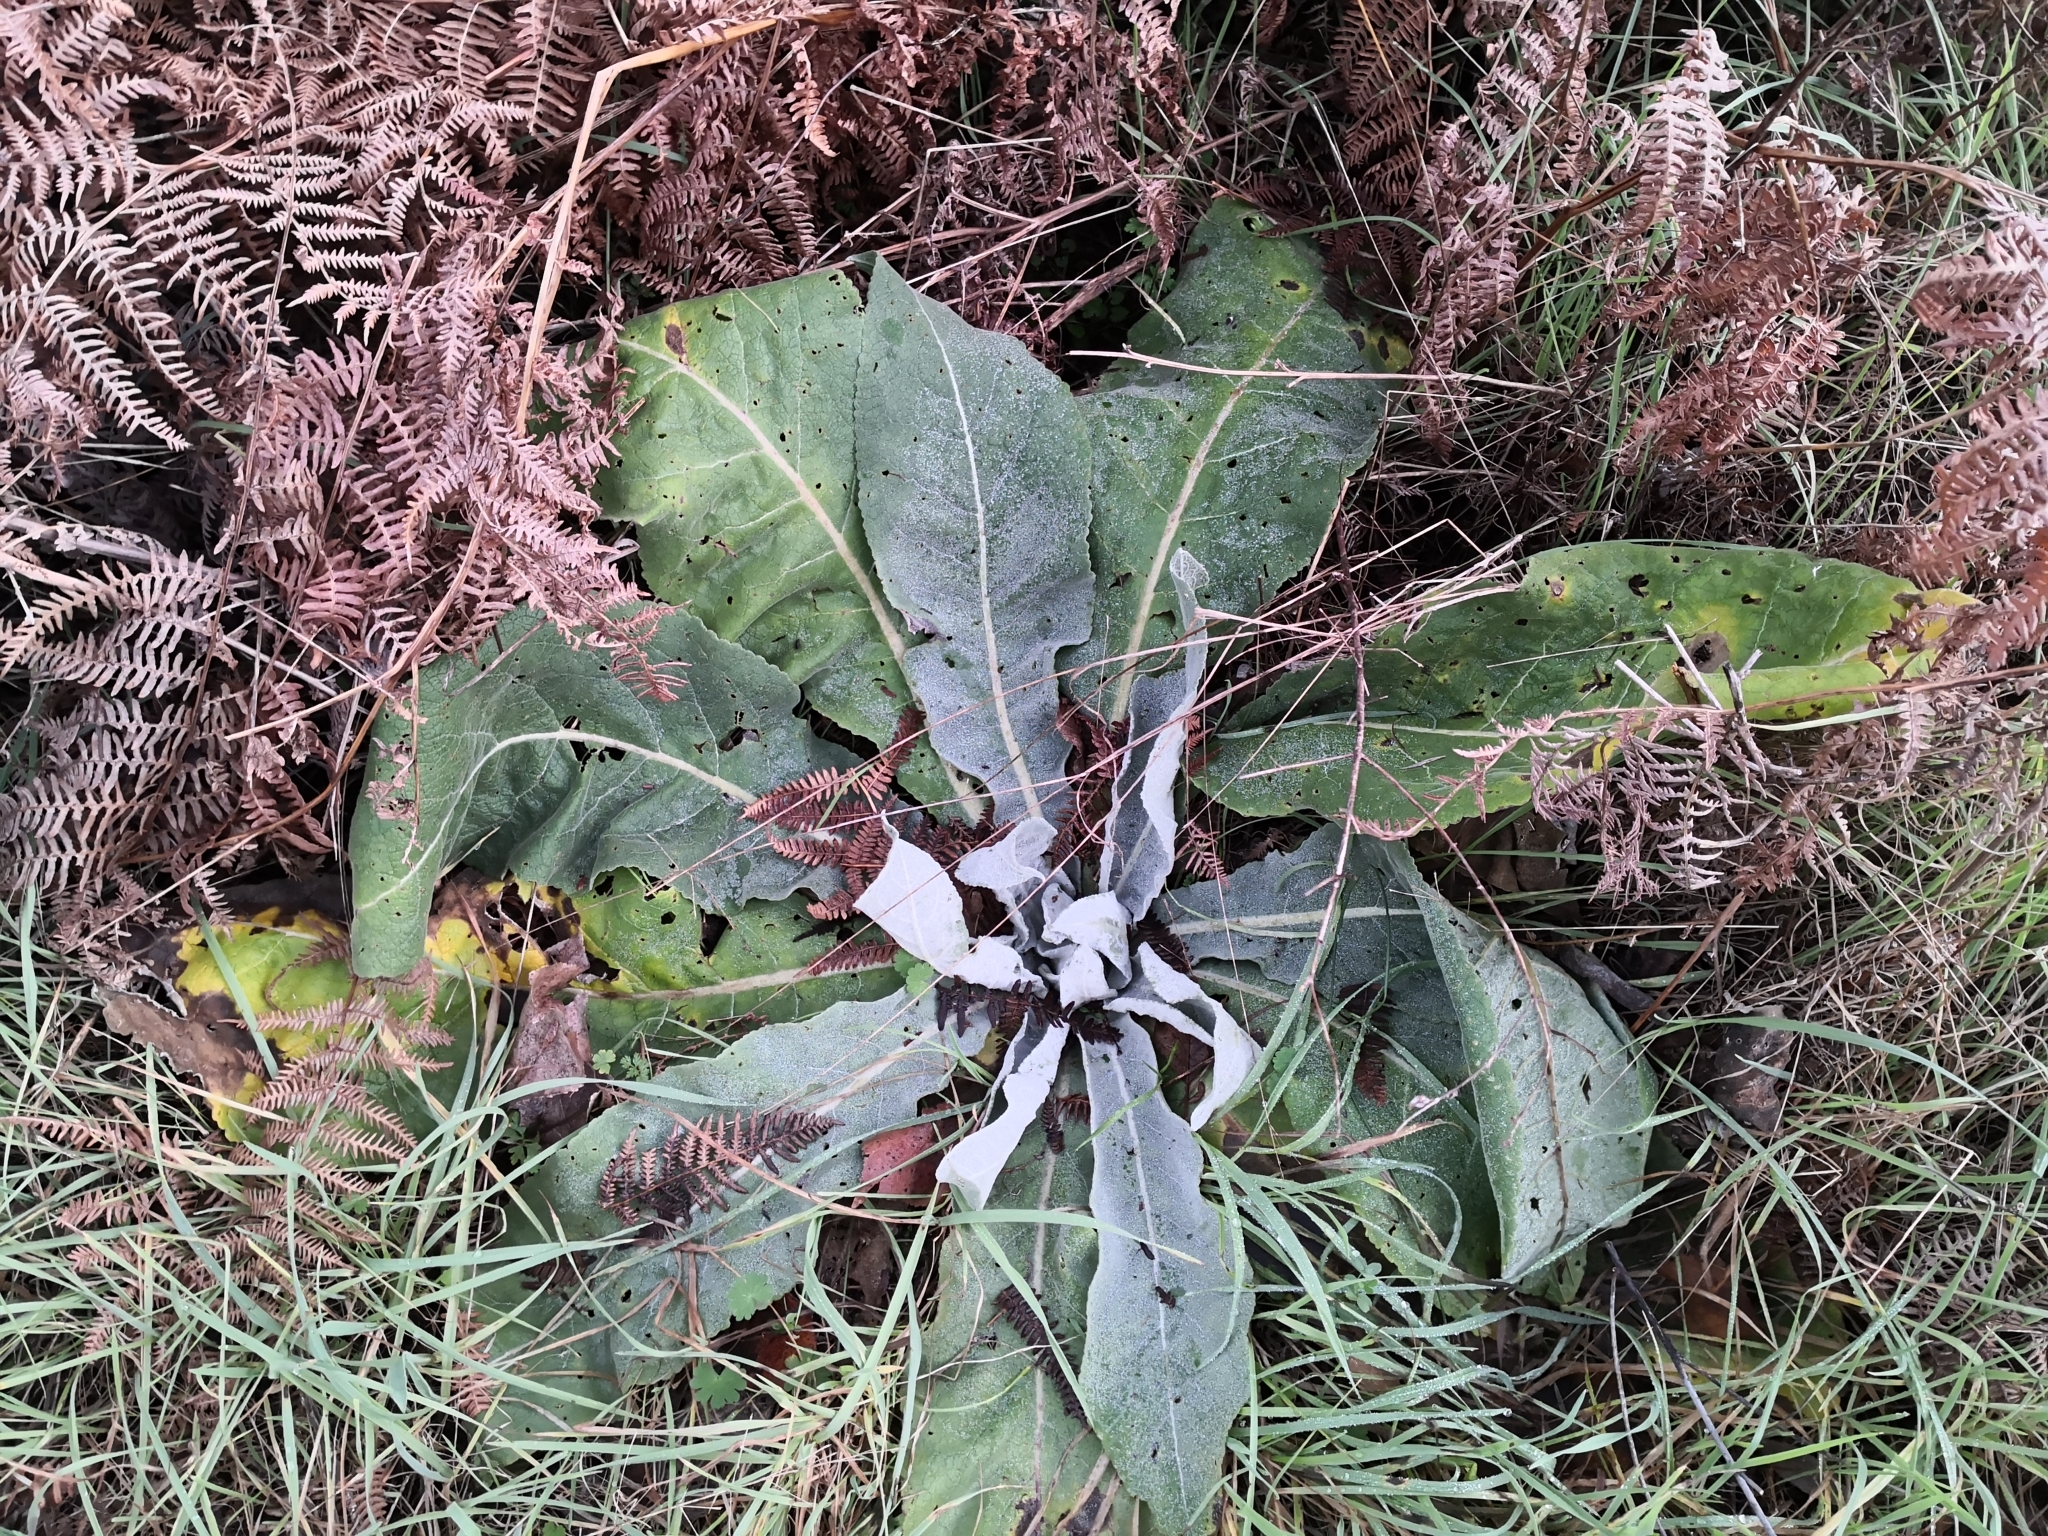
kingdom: Plantae
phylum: Tracheophyta
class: Magnoliopsida
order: Lamiales
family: Scrophulariaceae
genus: Verbascum
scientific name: Verbascum pulverulentum
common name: Broad-leaf mullein
